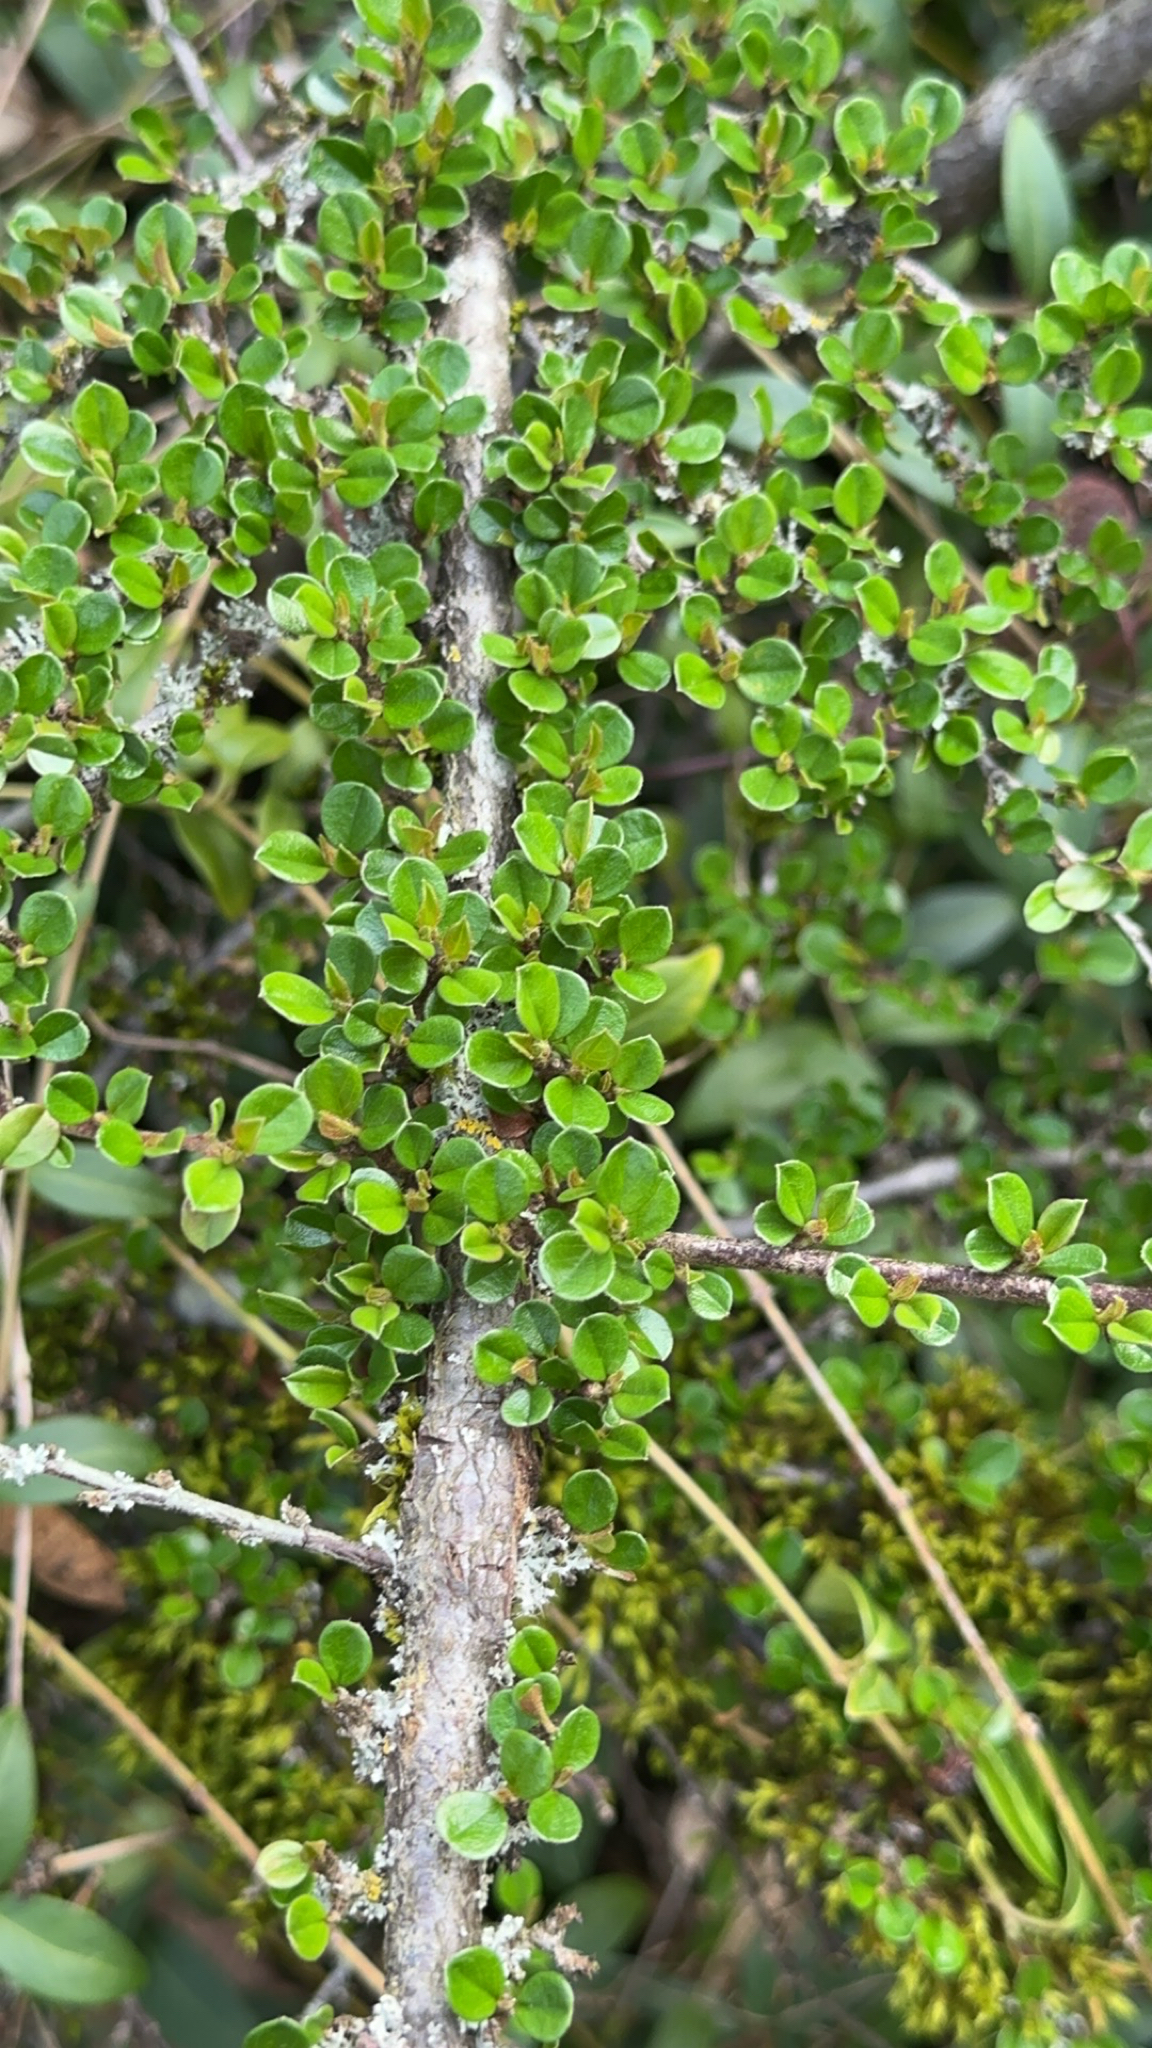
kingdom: Plantae
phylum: Tracheophyta
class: Magnoliopsida
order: Rosales
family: Rosaceae
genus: Cotoneaster
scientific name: Cotoneaster horizontalis
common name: Wall cotoneaster
